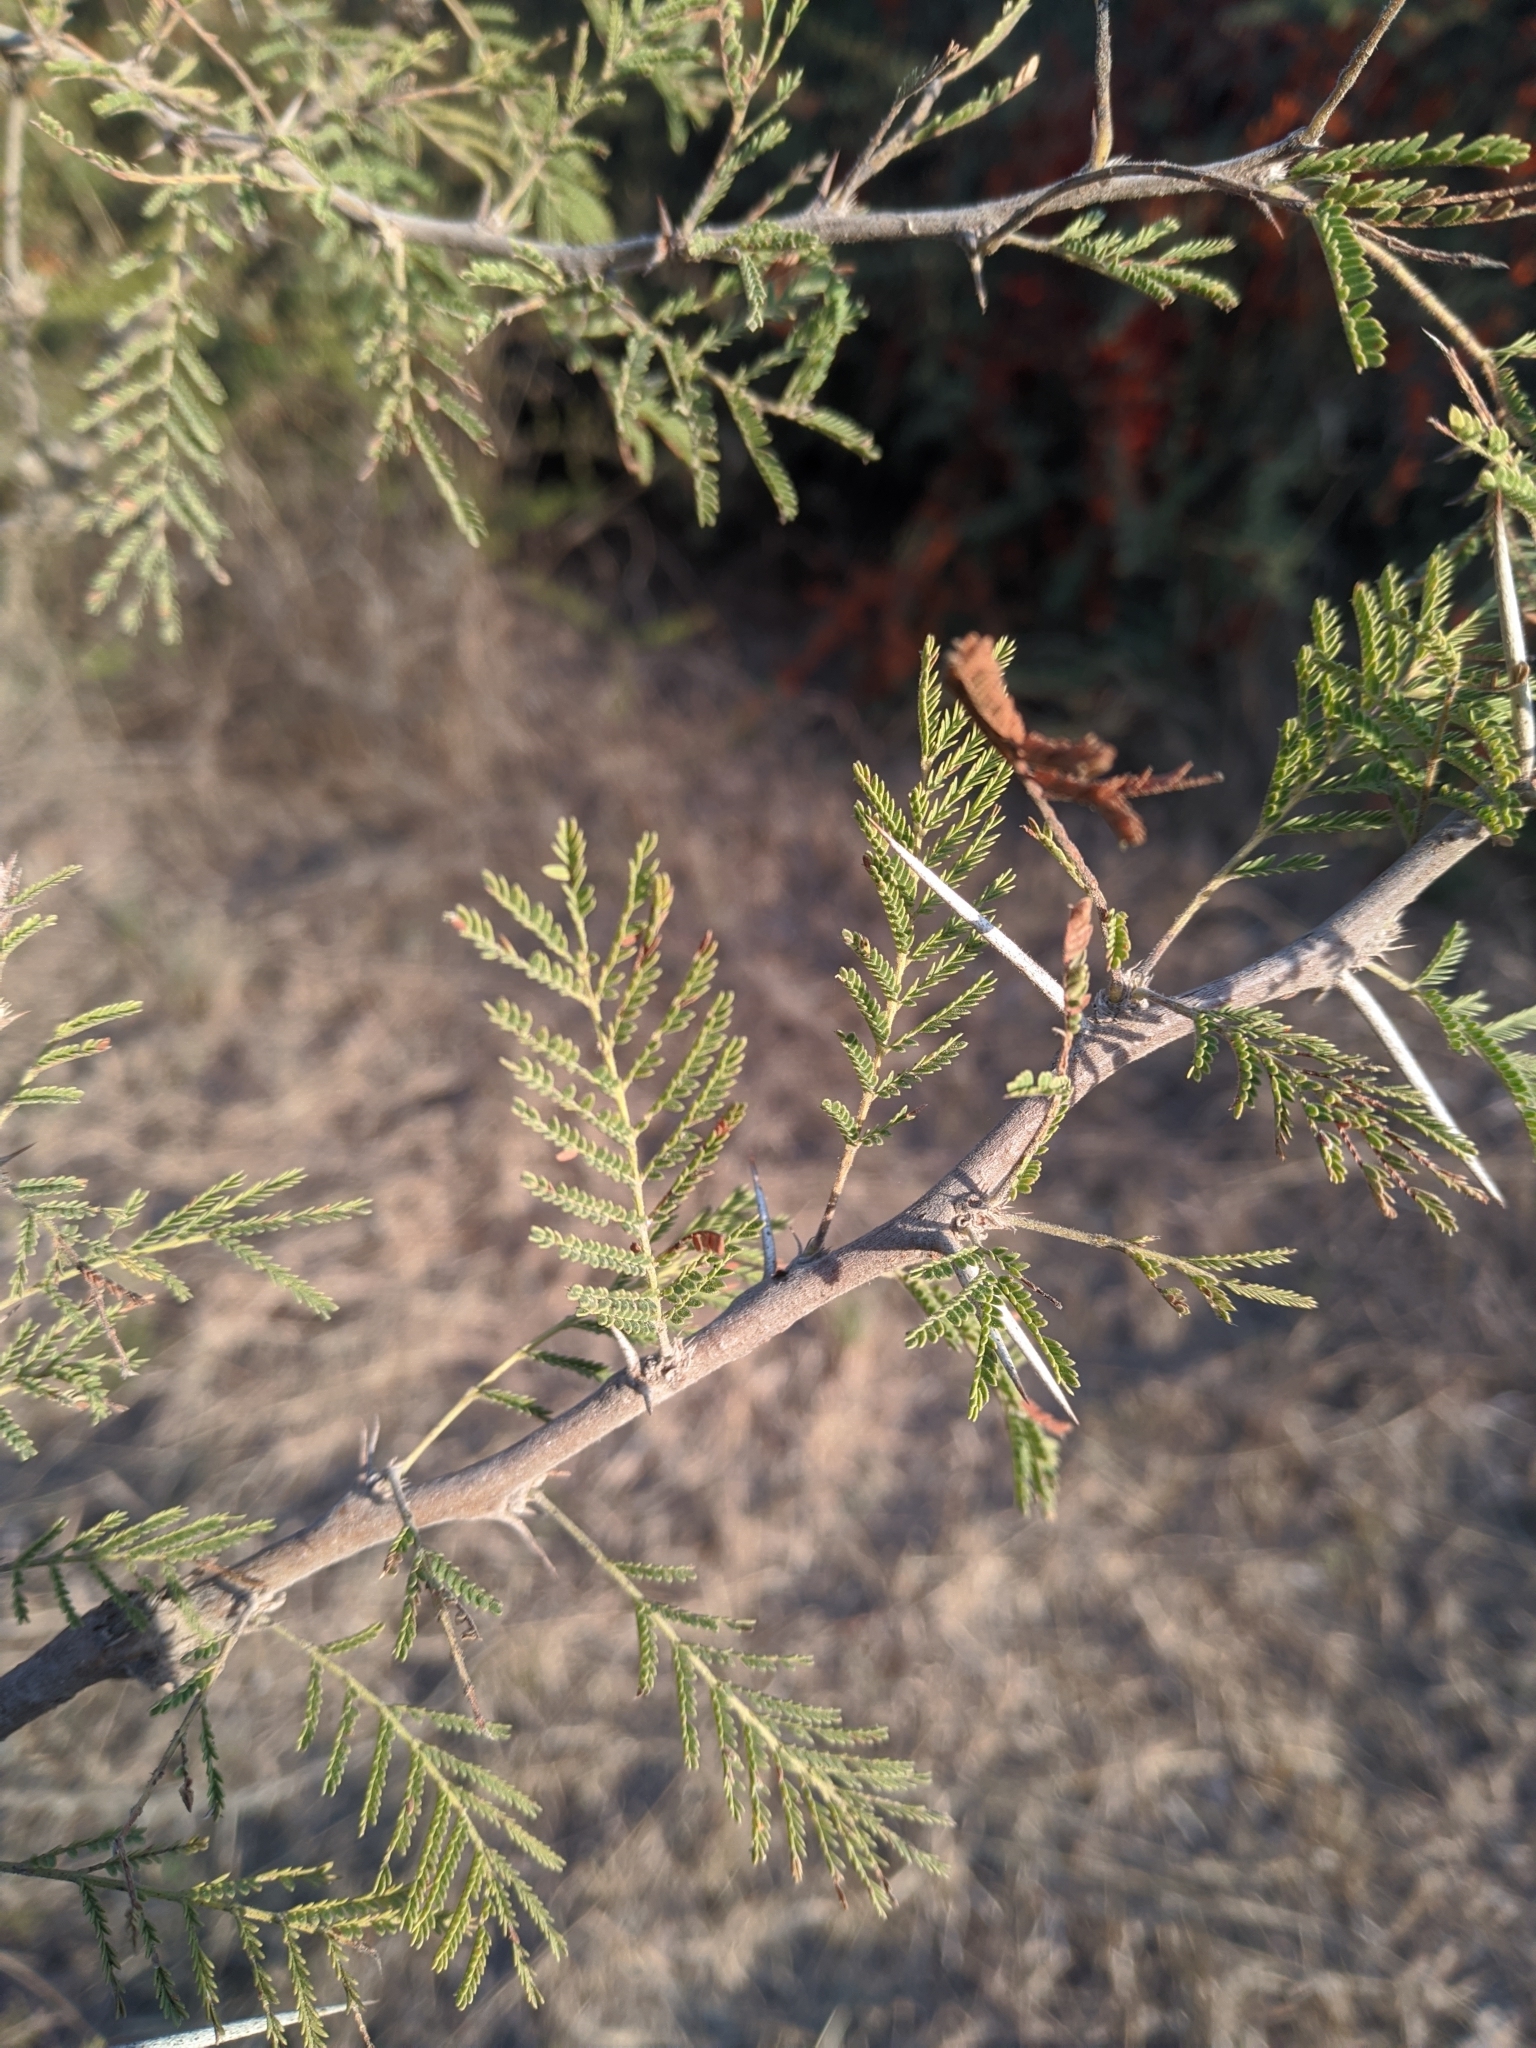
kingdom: Plantae
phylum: Tracheophyta
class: Magnoliopsida
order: Fabales
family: Fabaceae
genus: Vachellia
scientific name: Vachellia caven
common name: Roman cassie
